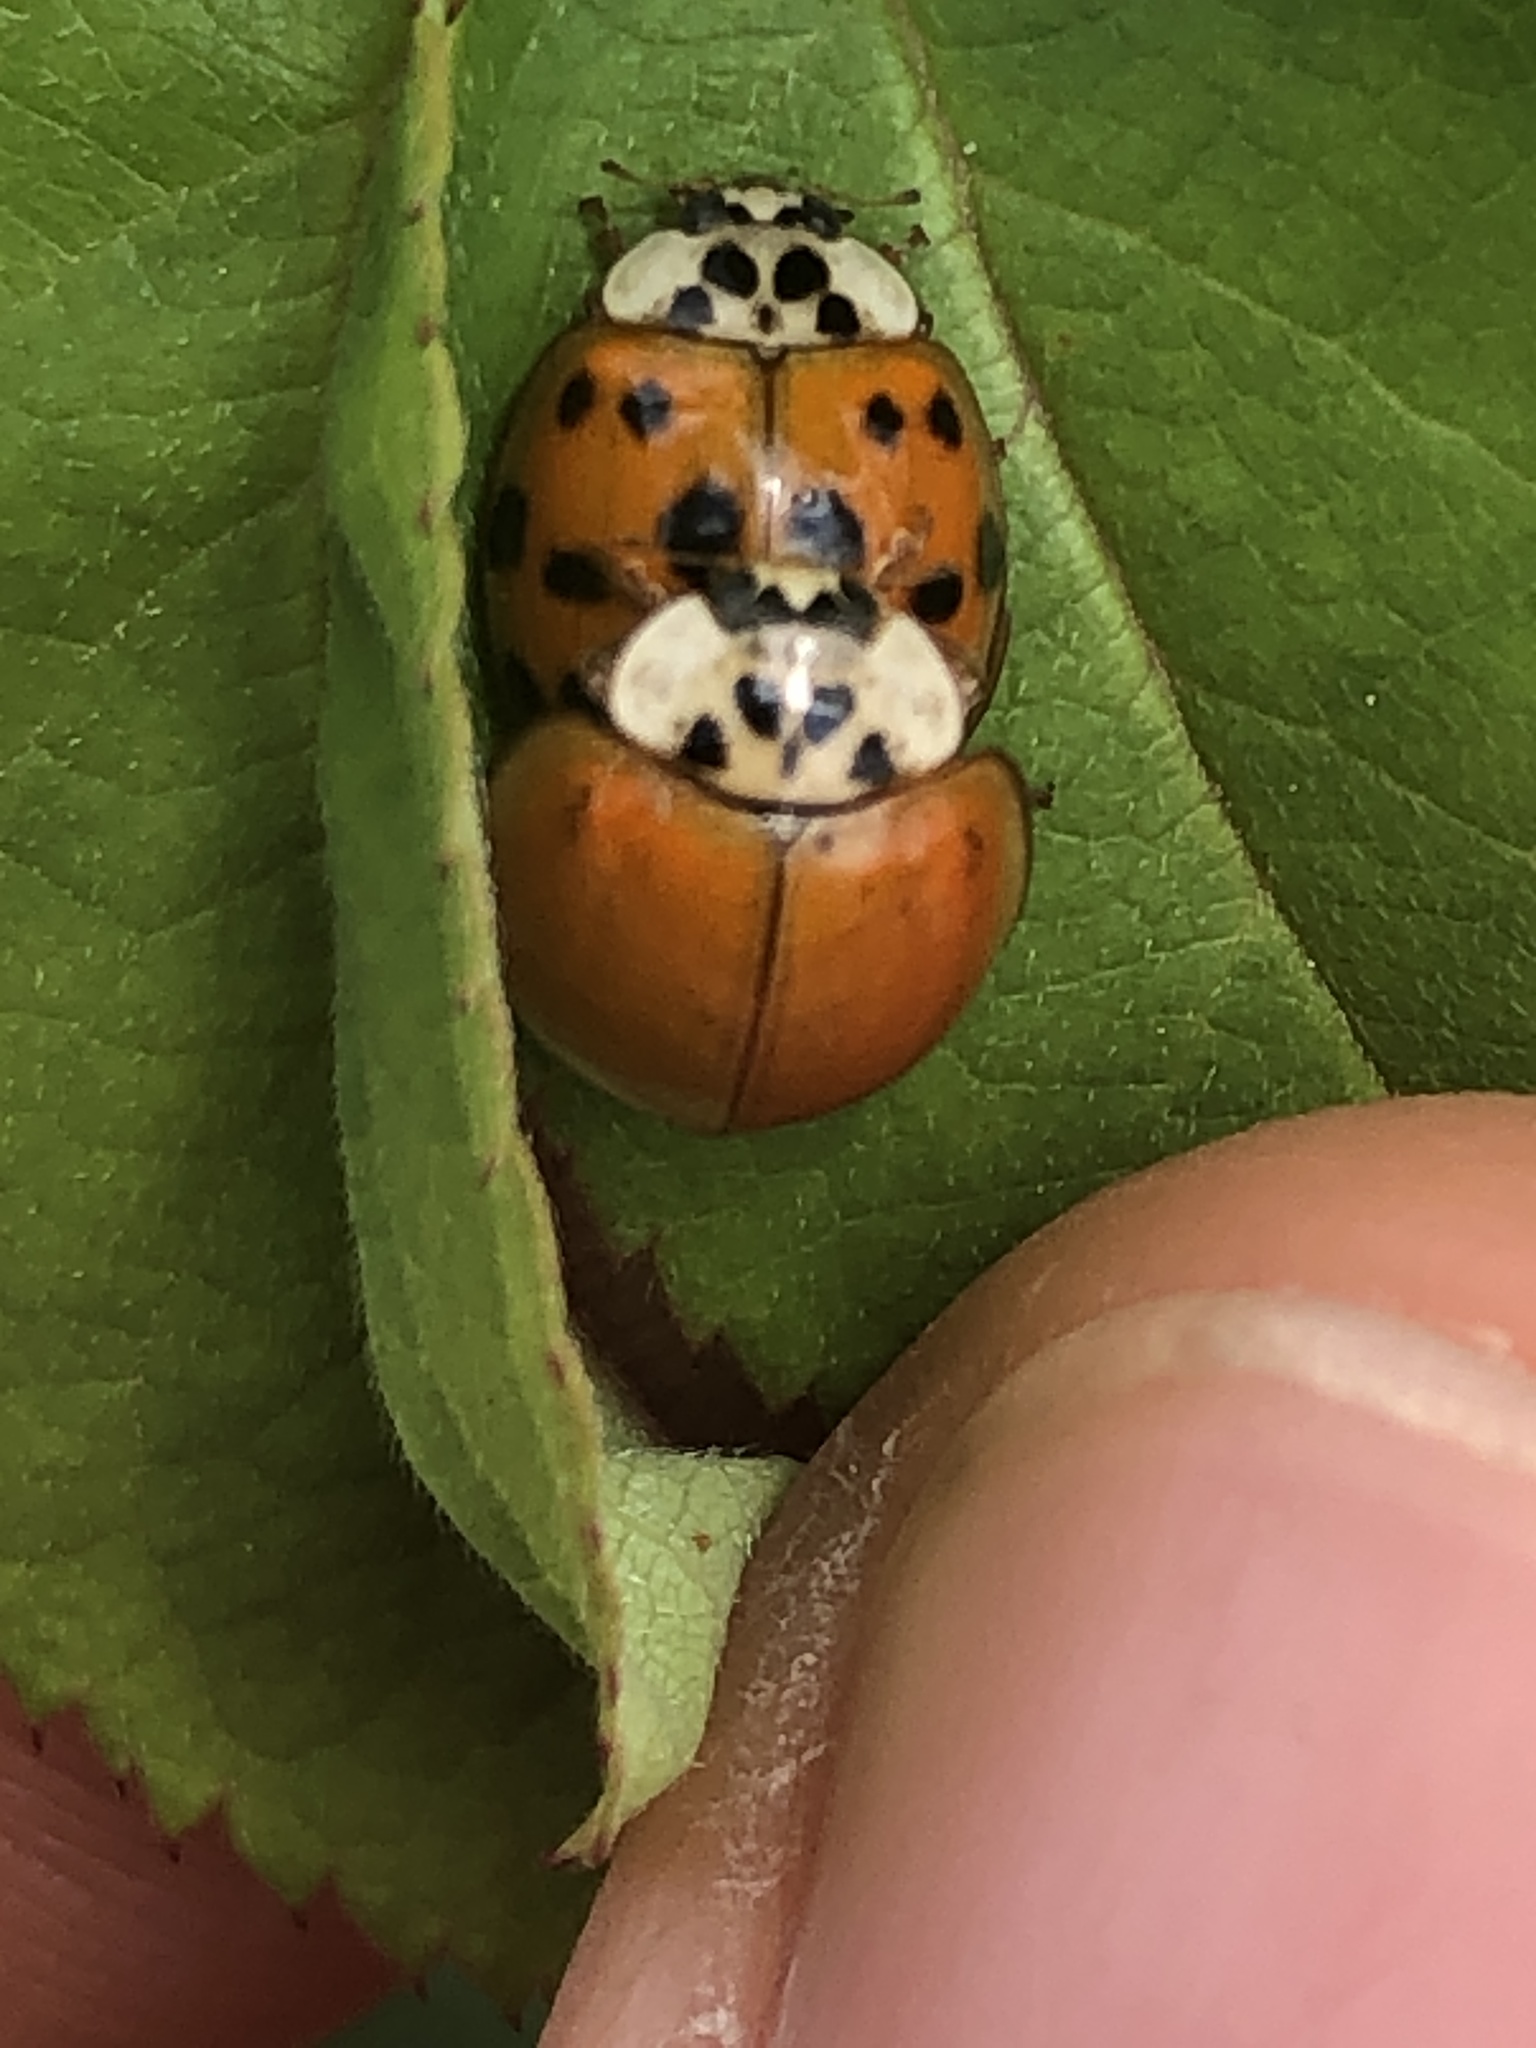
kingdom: Animalia
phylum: Arthropoda
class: Insecta
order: Coleoptera
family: Coccinellidae
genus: Harmonia
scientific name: Harmonia axyridis
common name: Harlequin ladybird
